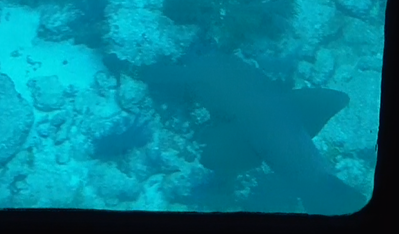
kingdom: Animalia
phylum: Chordata
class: Elasmobranchii
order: Orectolobiformes
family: Ginglymostomatidae
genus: Ginglymostoma
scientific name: Ginglymostoma cirratum
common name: Nurse shark
